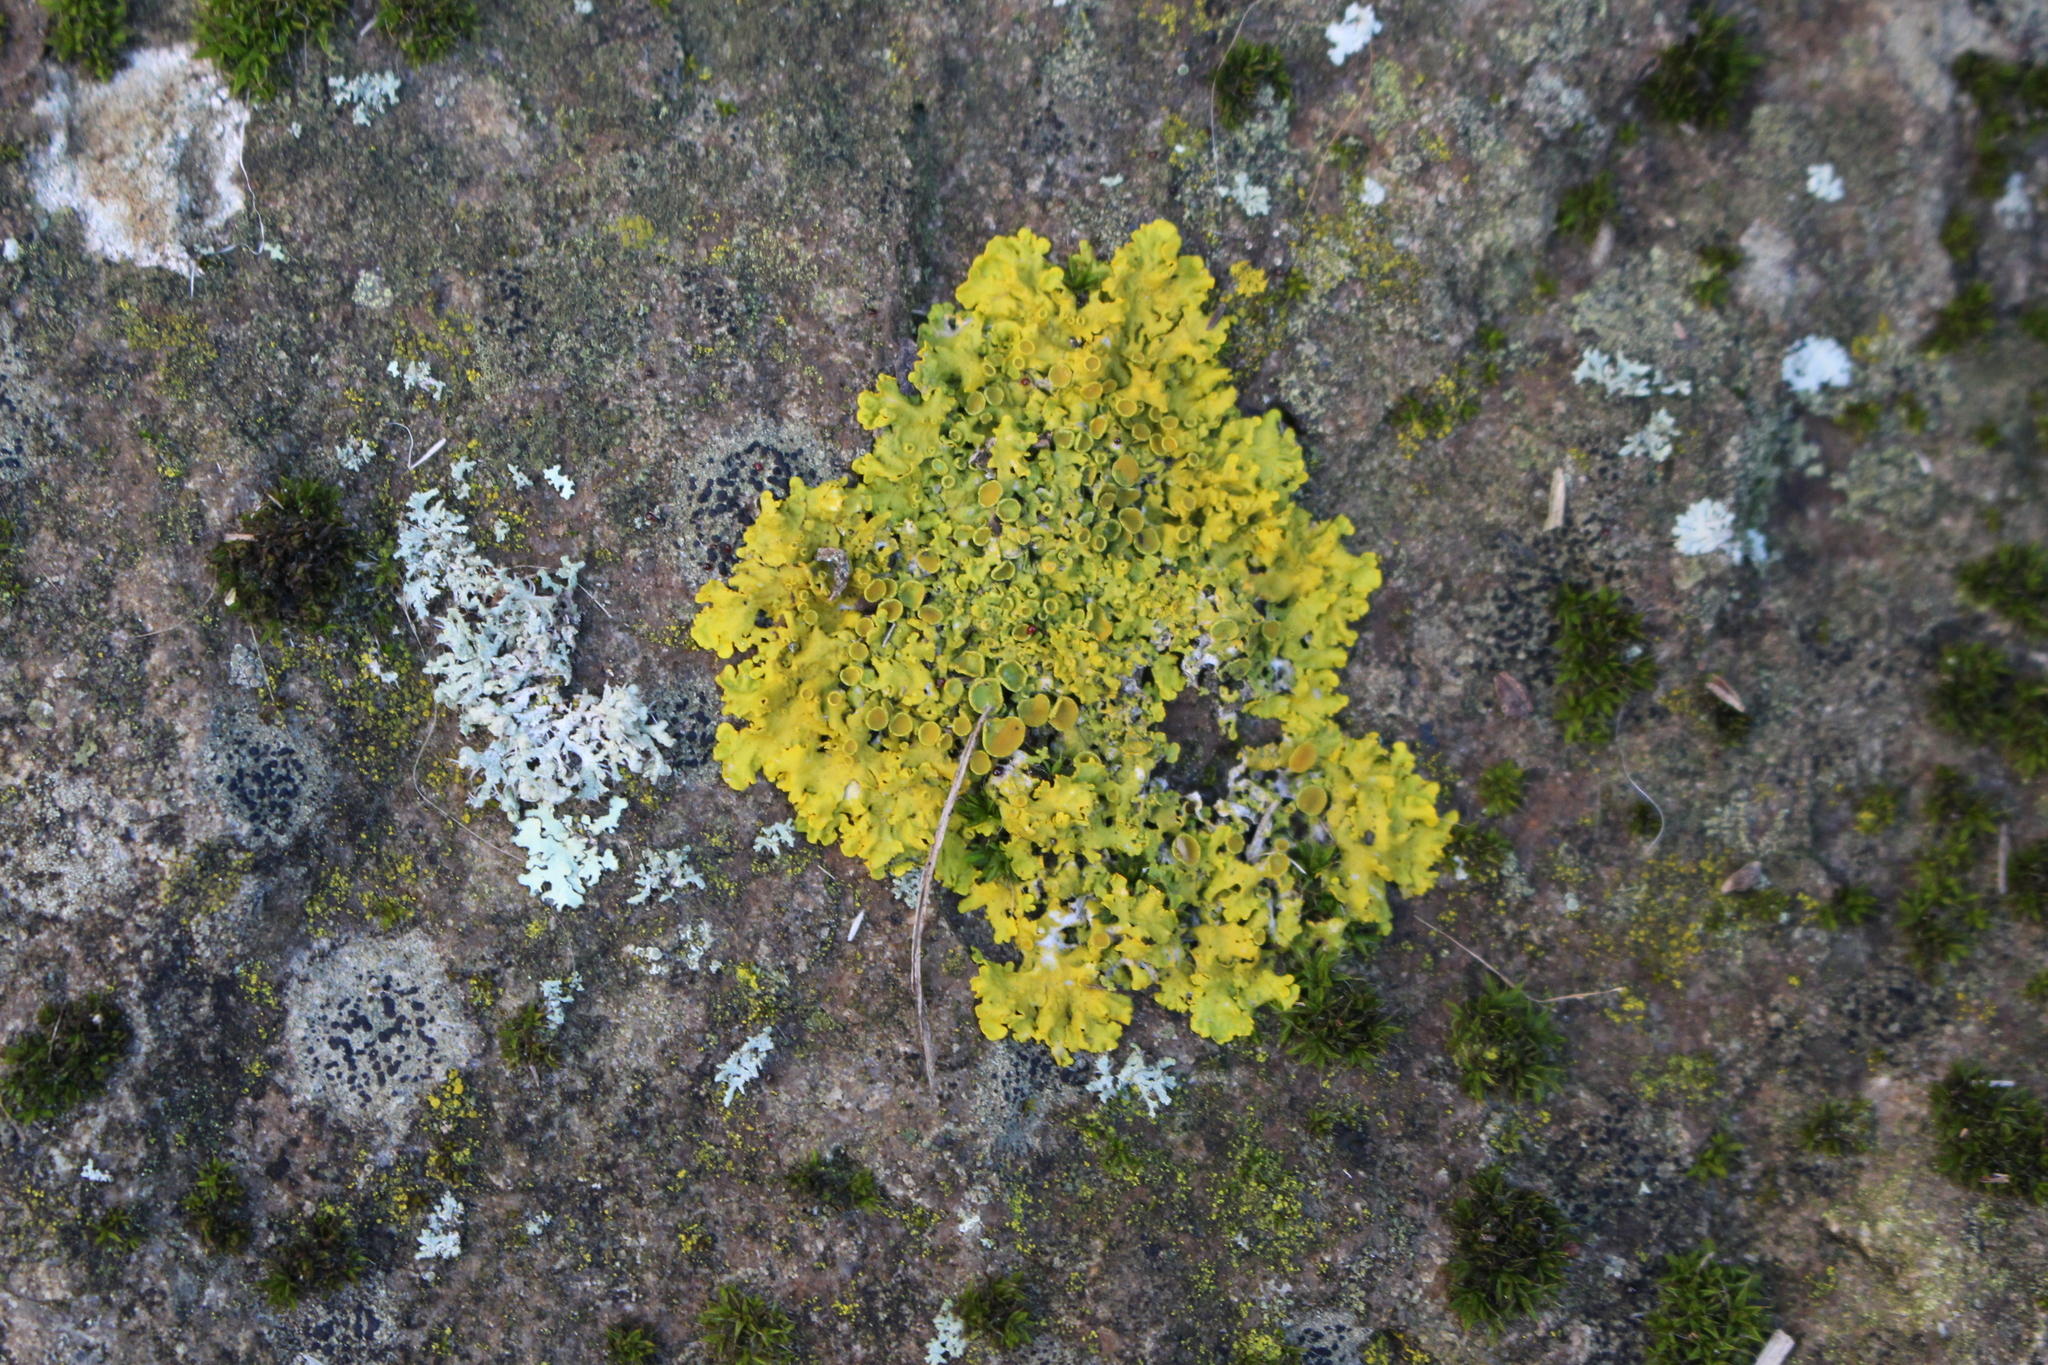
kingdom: Fungi
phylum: Ascomycota
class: Lecanoromycetes
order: Teloschistales
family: Teloschistaceae
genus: Xanthoria
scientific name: Xanthoria parietina
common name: Common orange lichen
